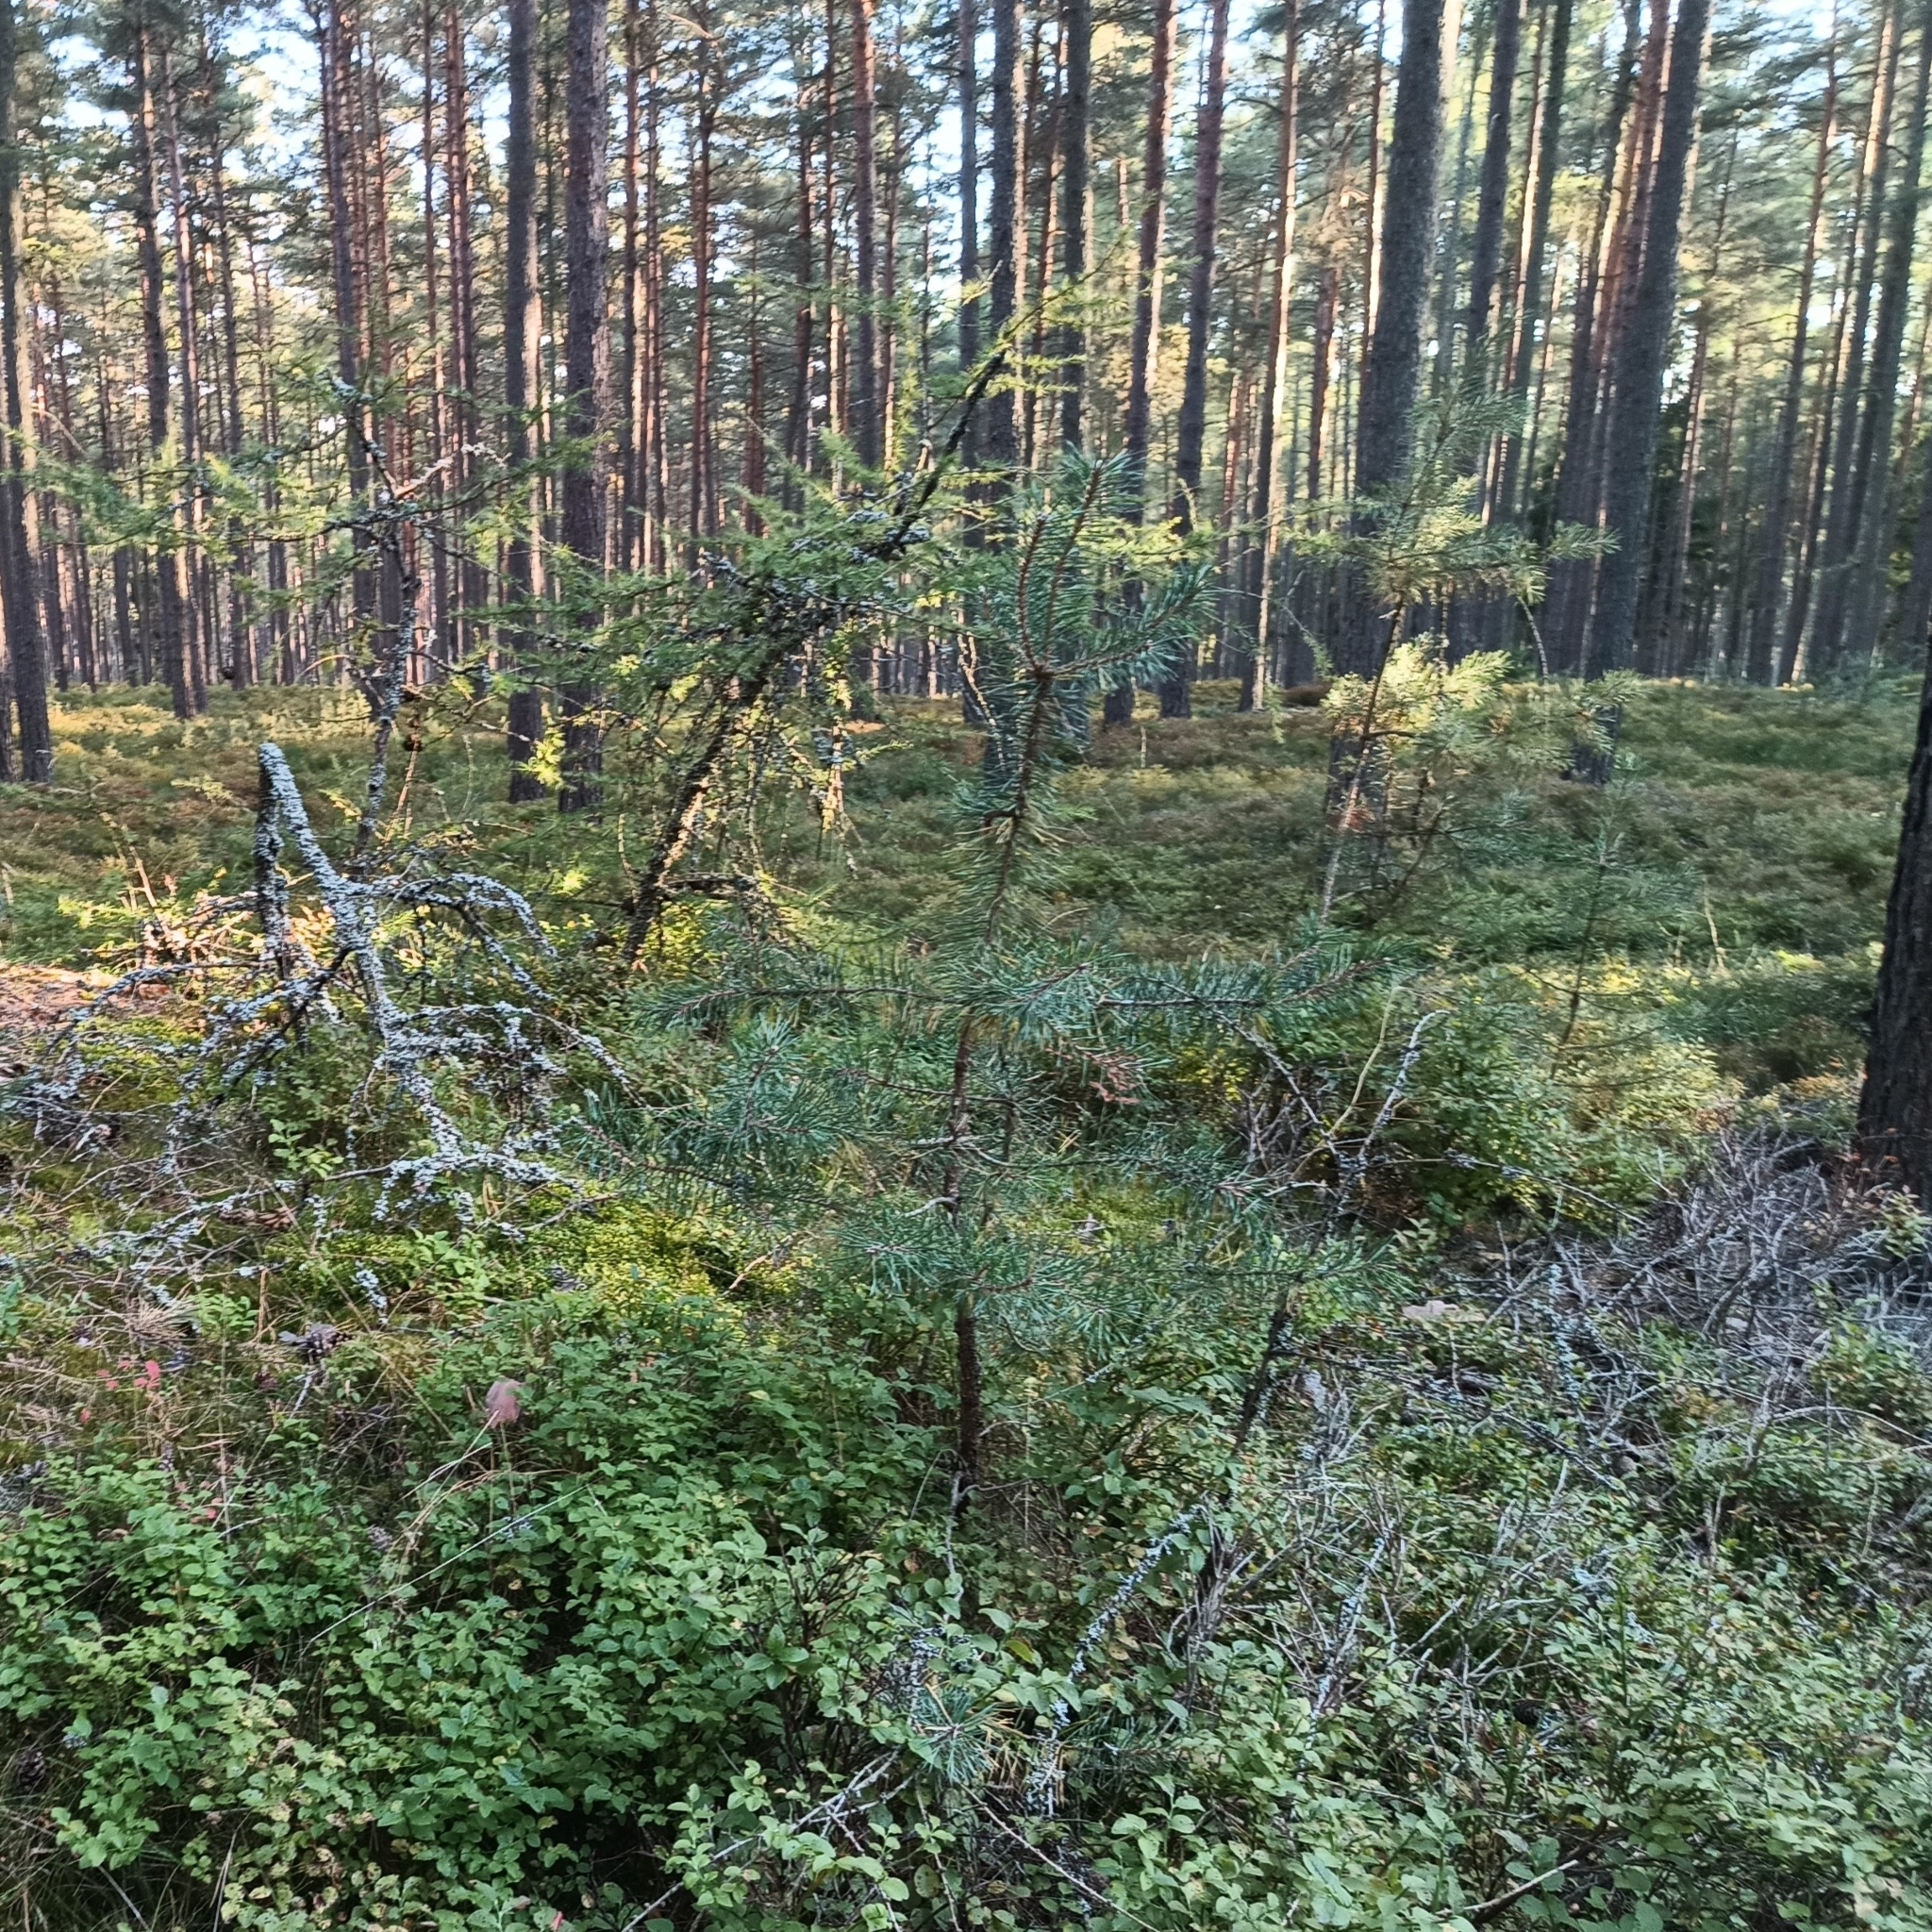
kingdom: Plantae
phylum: Tracheophyta
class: Pinopsida
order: Pinales
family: Pinaceae
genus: Pinus
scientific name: Pinus sylvestris
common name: Scots pine
